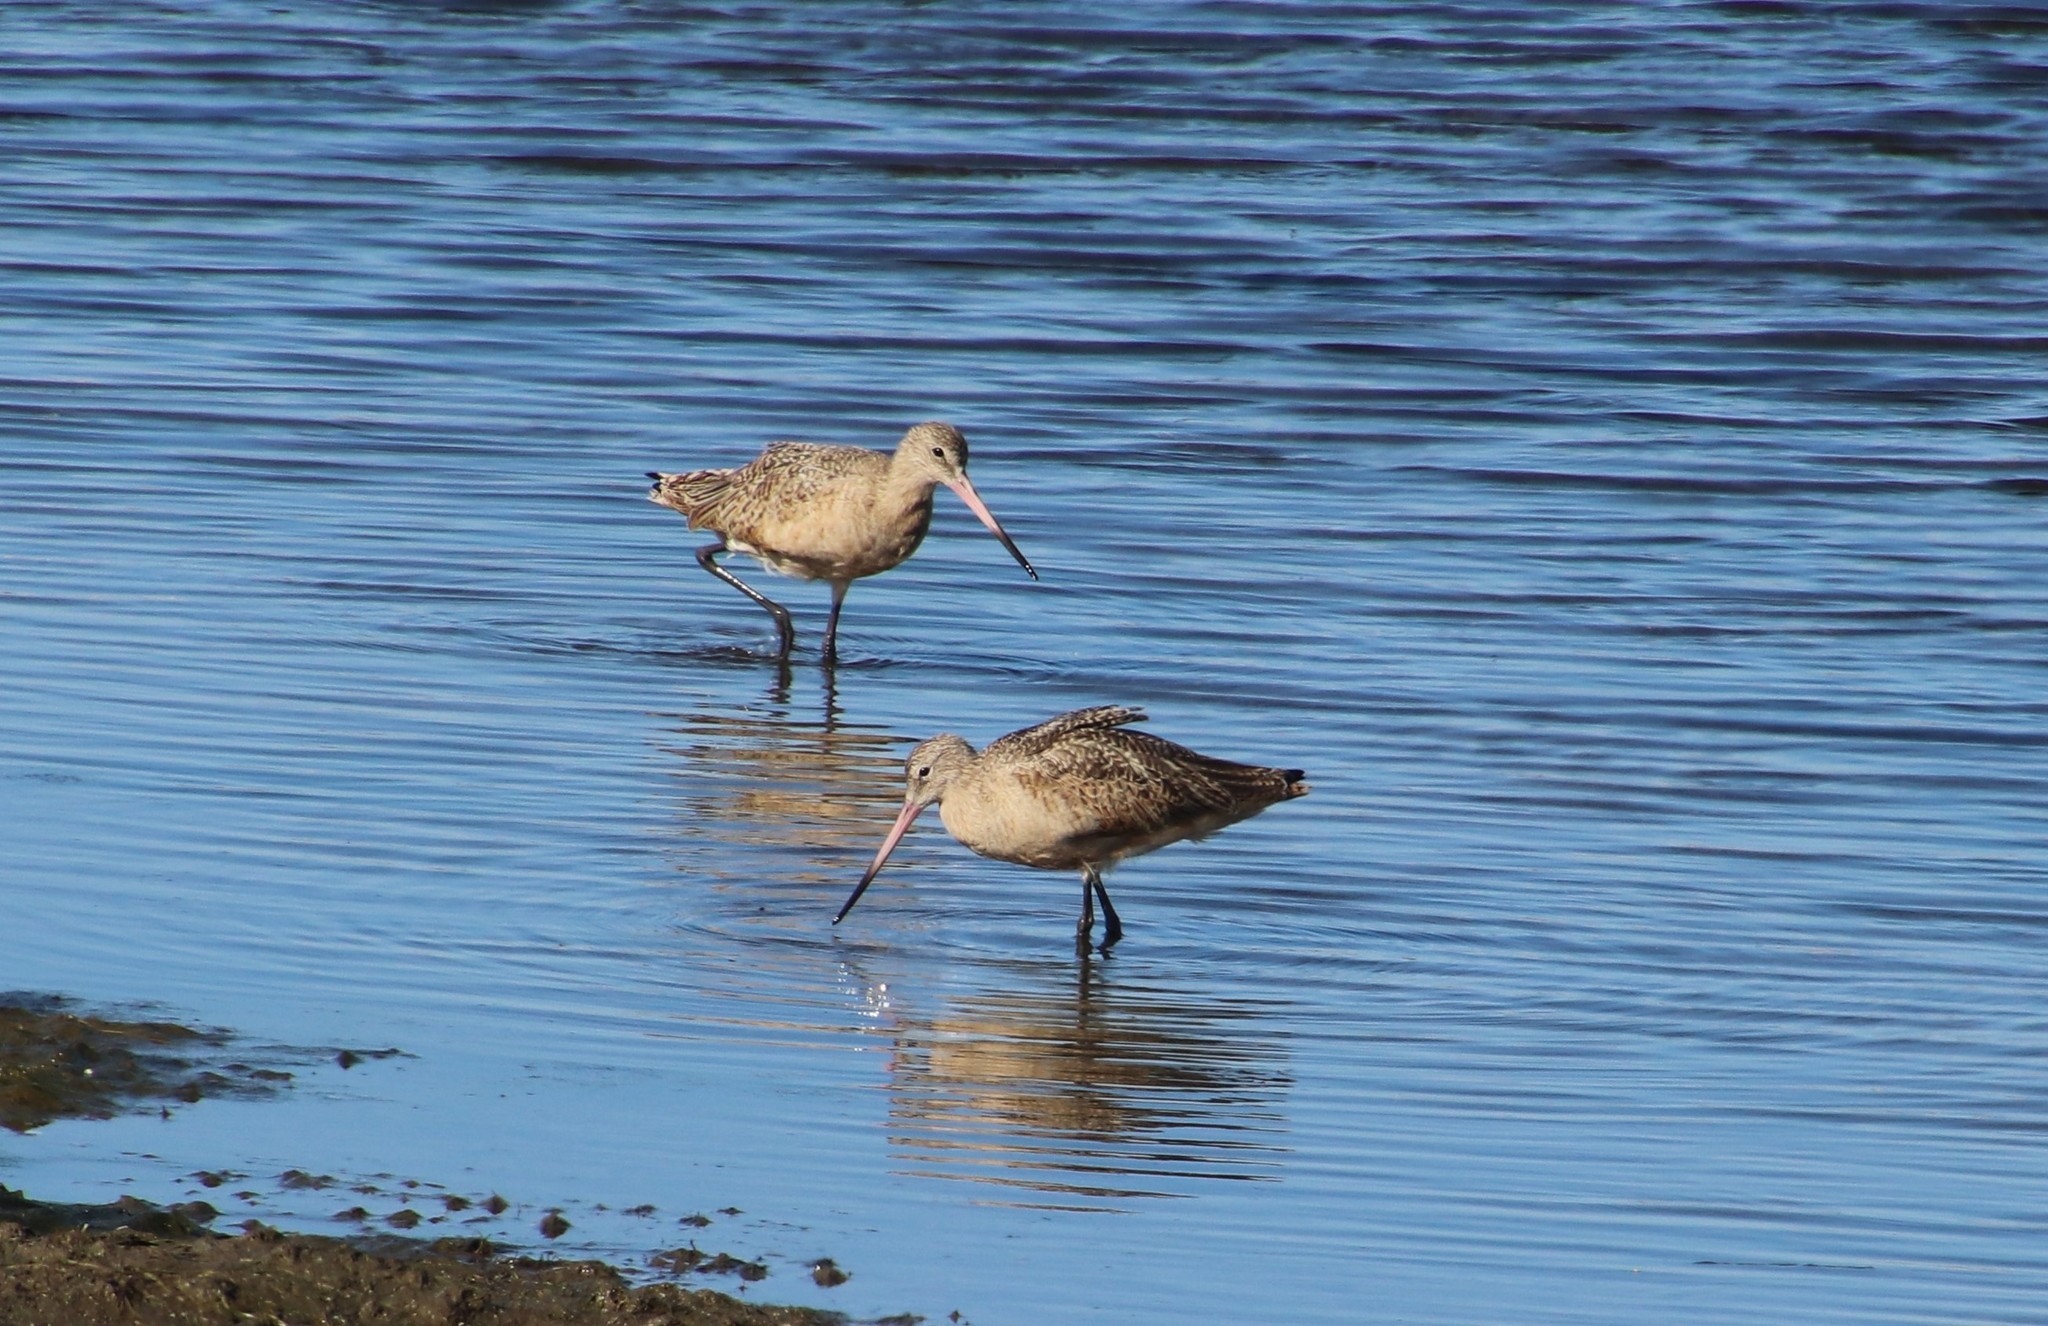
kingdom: Animalia
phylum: Chordata
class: Aves
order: Charadriiformes
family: Scolopacidae
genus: Limosa
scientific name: Limosa fedoa
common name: Marbled godwit
